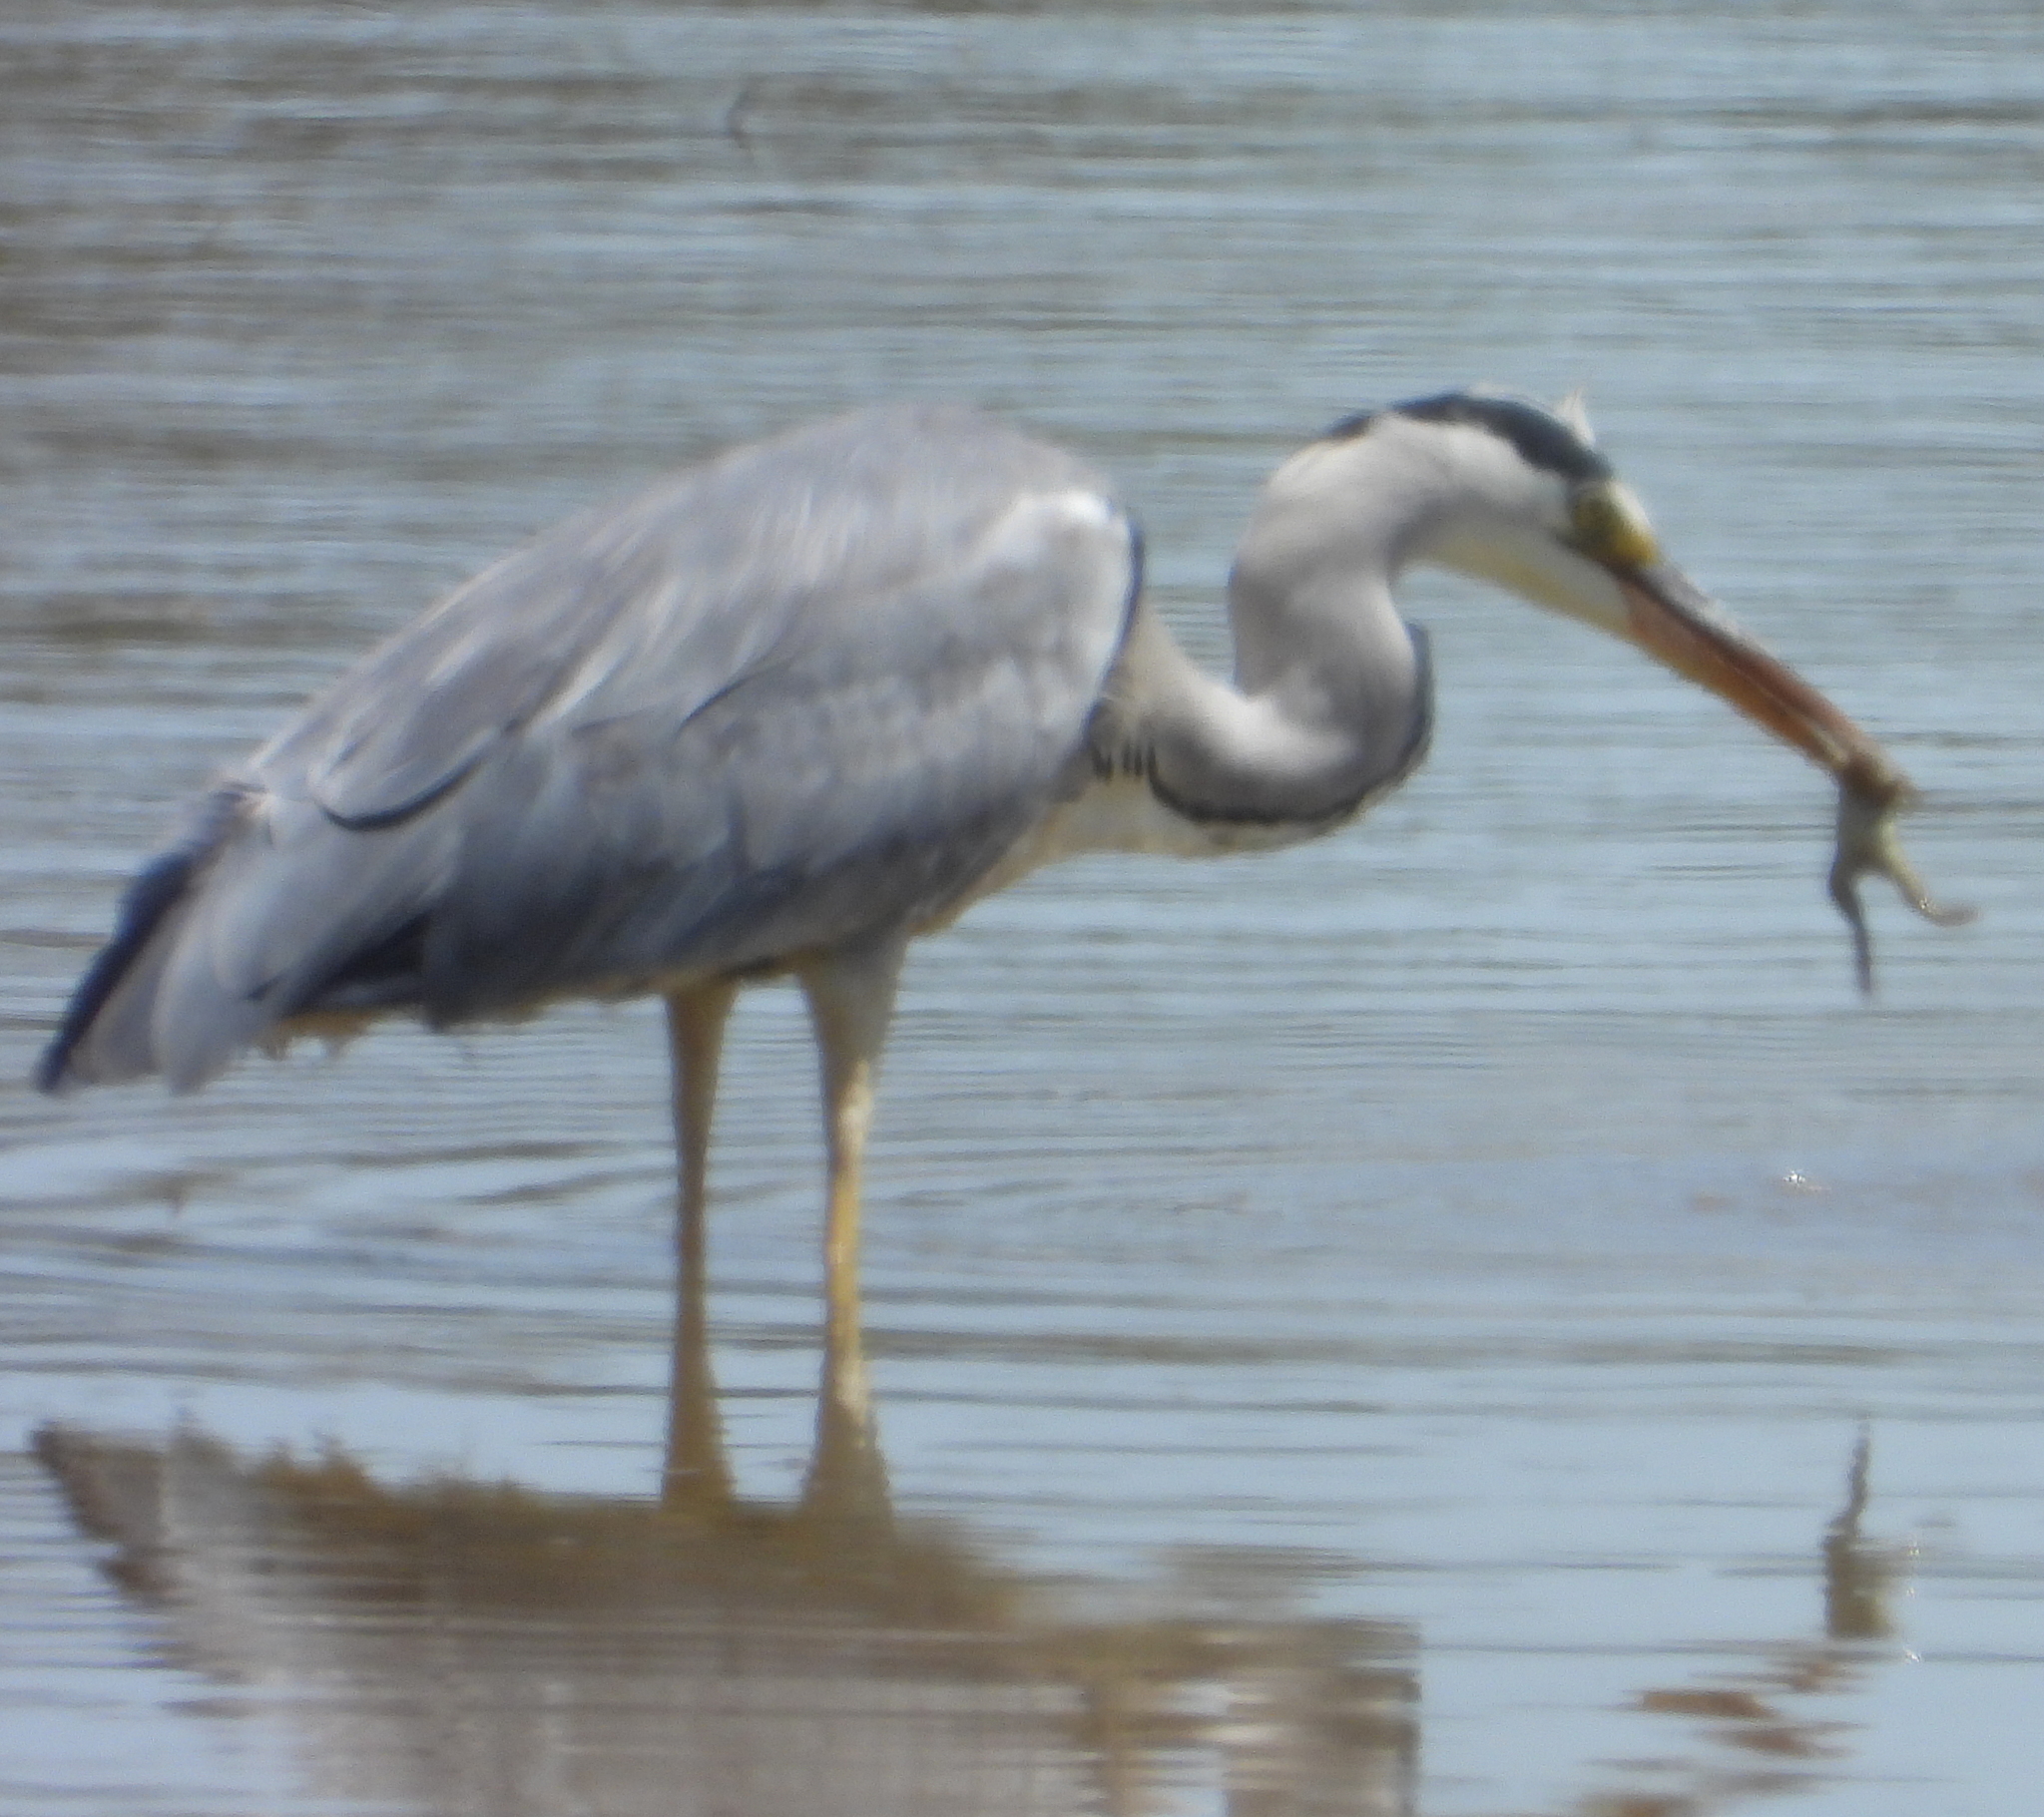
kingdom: Animalia
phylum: Chordata
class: Aves
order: Pelecaniformes
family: Ardeidae
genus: Ardea
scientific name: Ardea cinerea
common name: Grey heron
